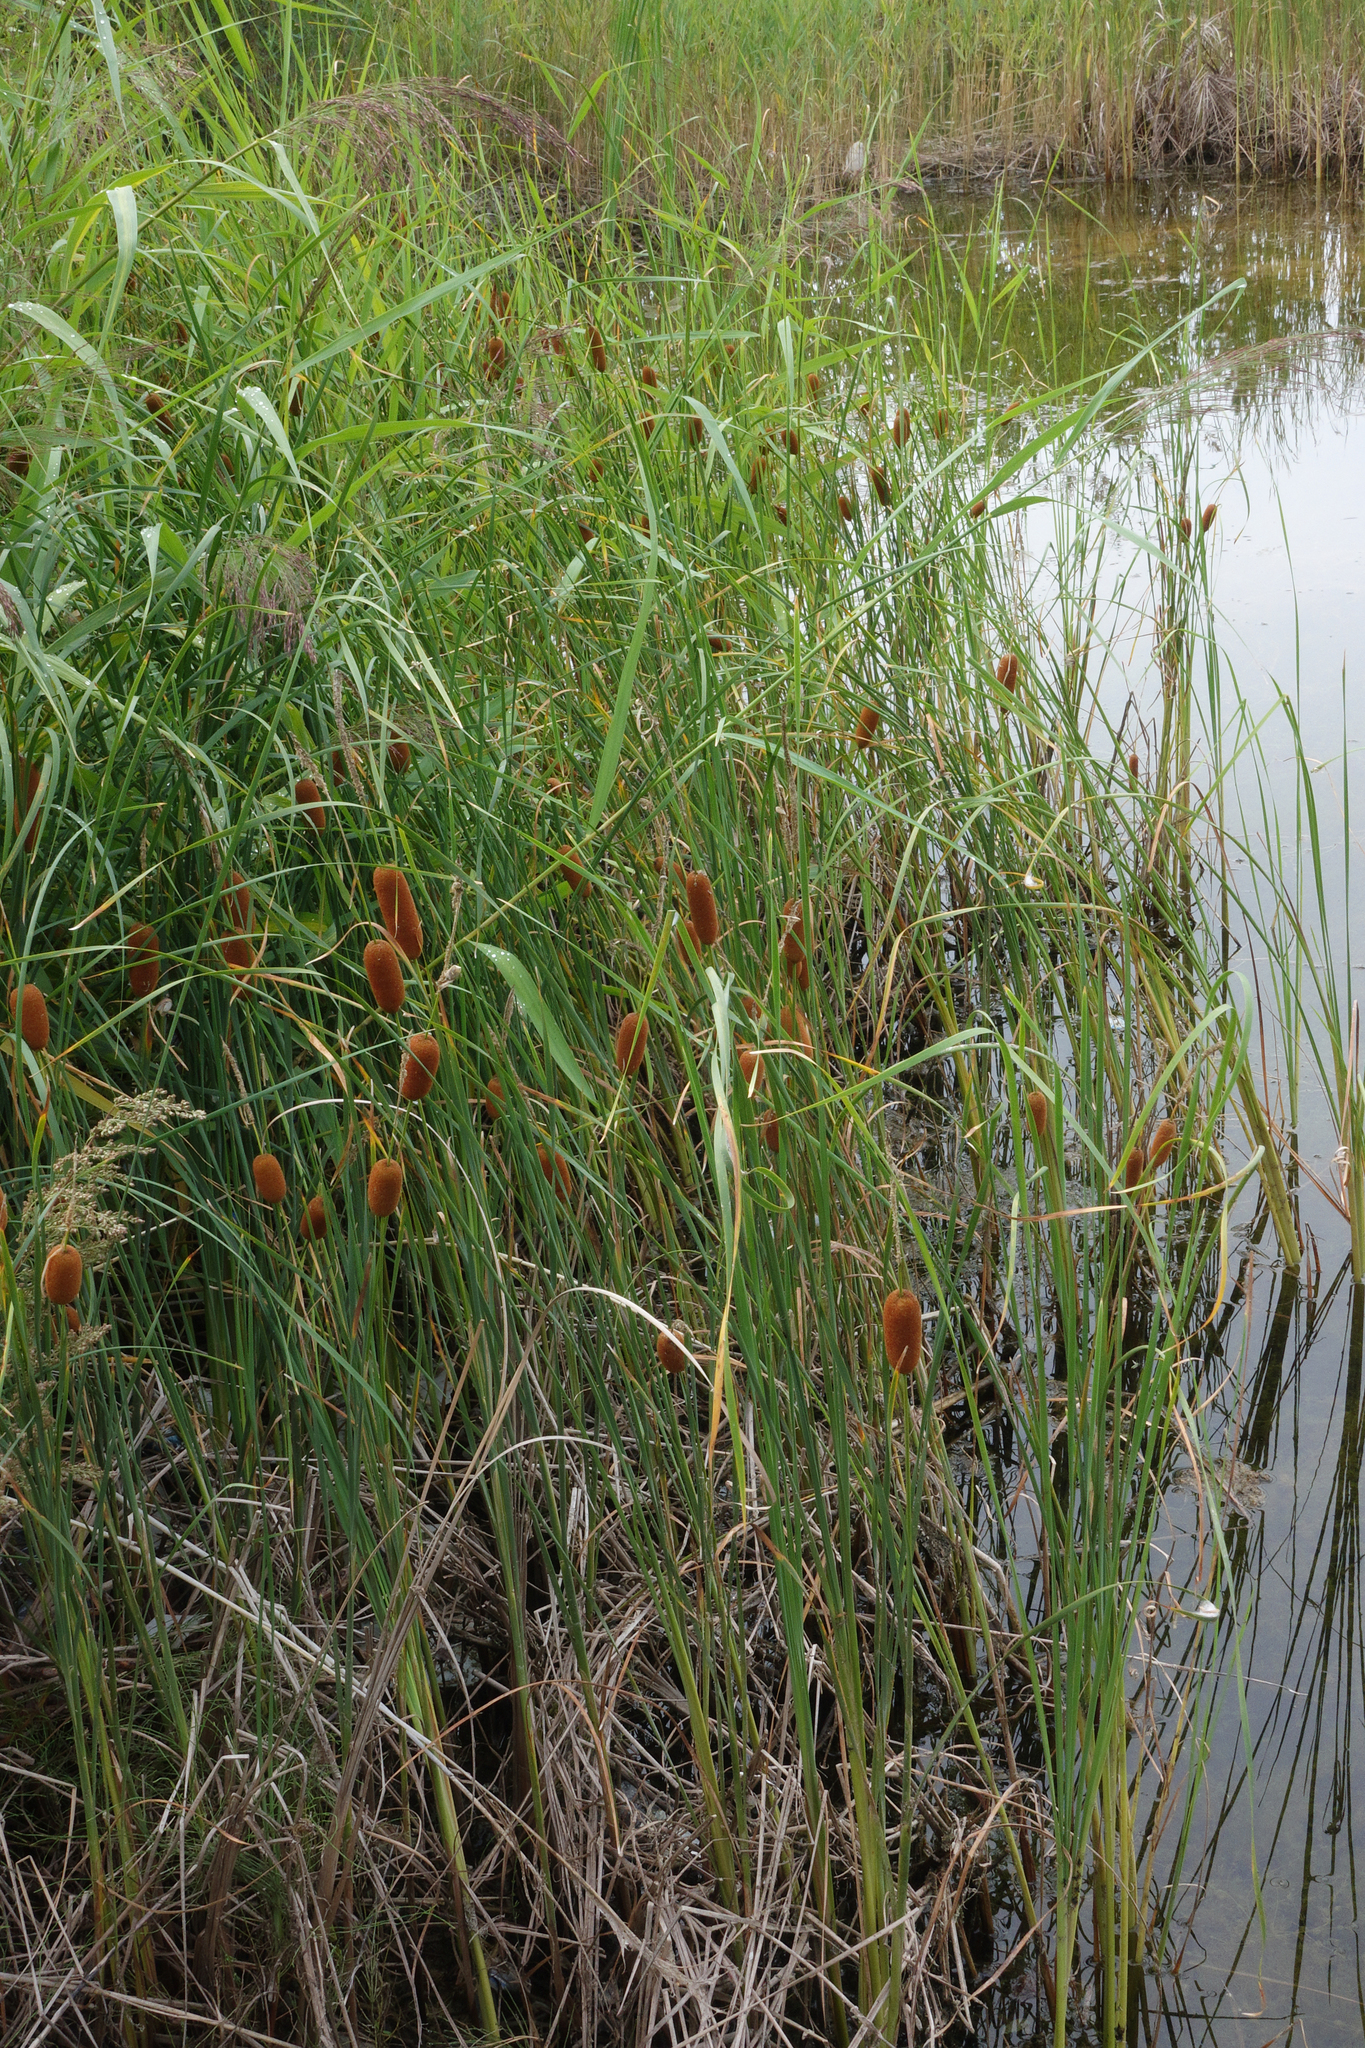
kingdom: Plantae
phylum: Tracheophyta
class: Liliopsida
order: Poales
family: Typhaceae
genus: Typha
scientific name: Typha laxmannii
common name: Laxman’s bulrush
